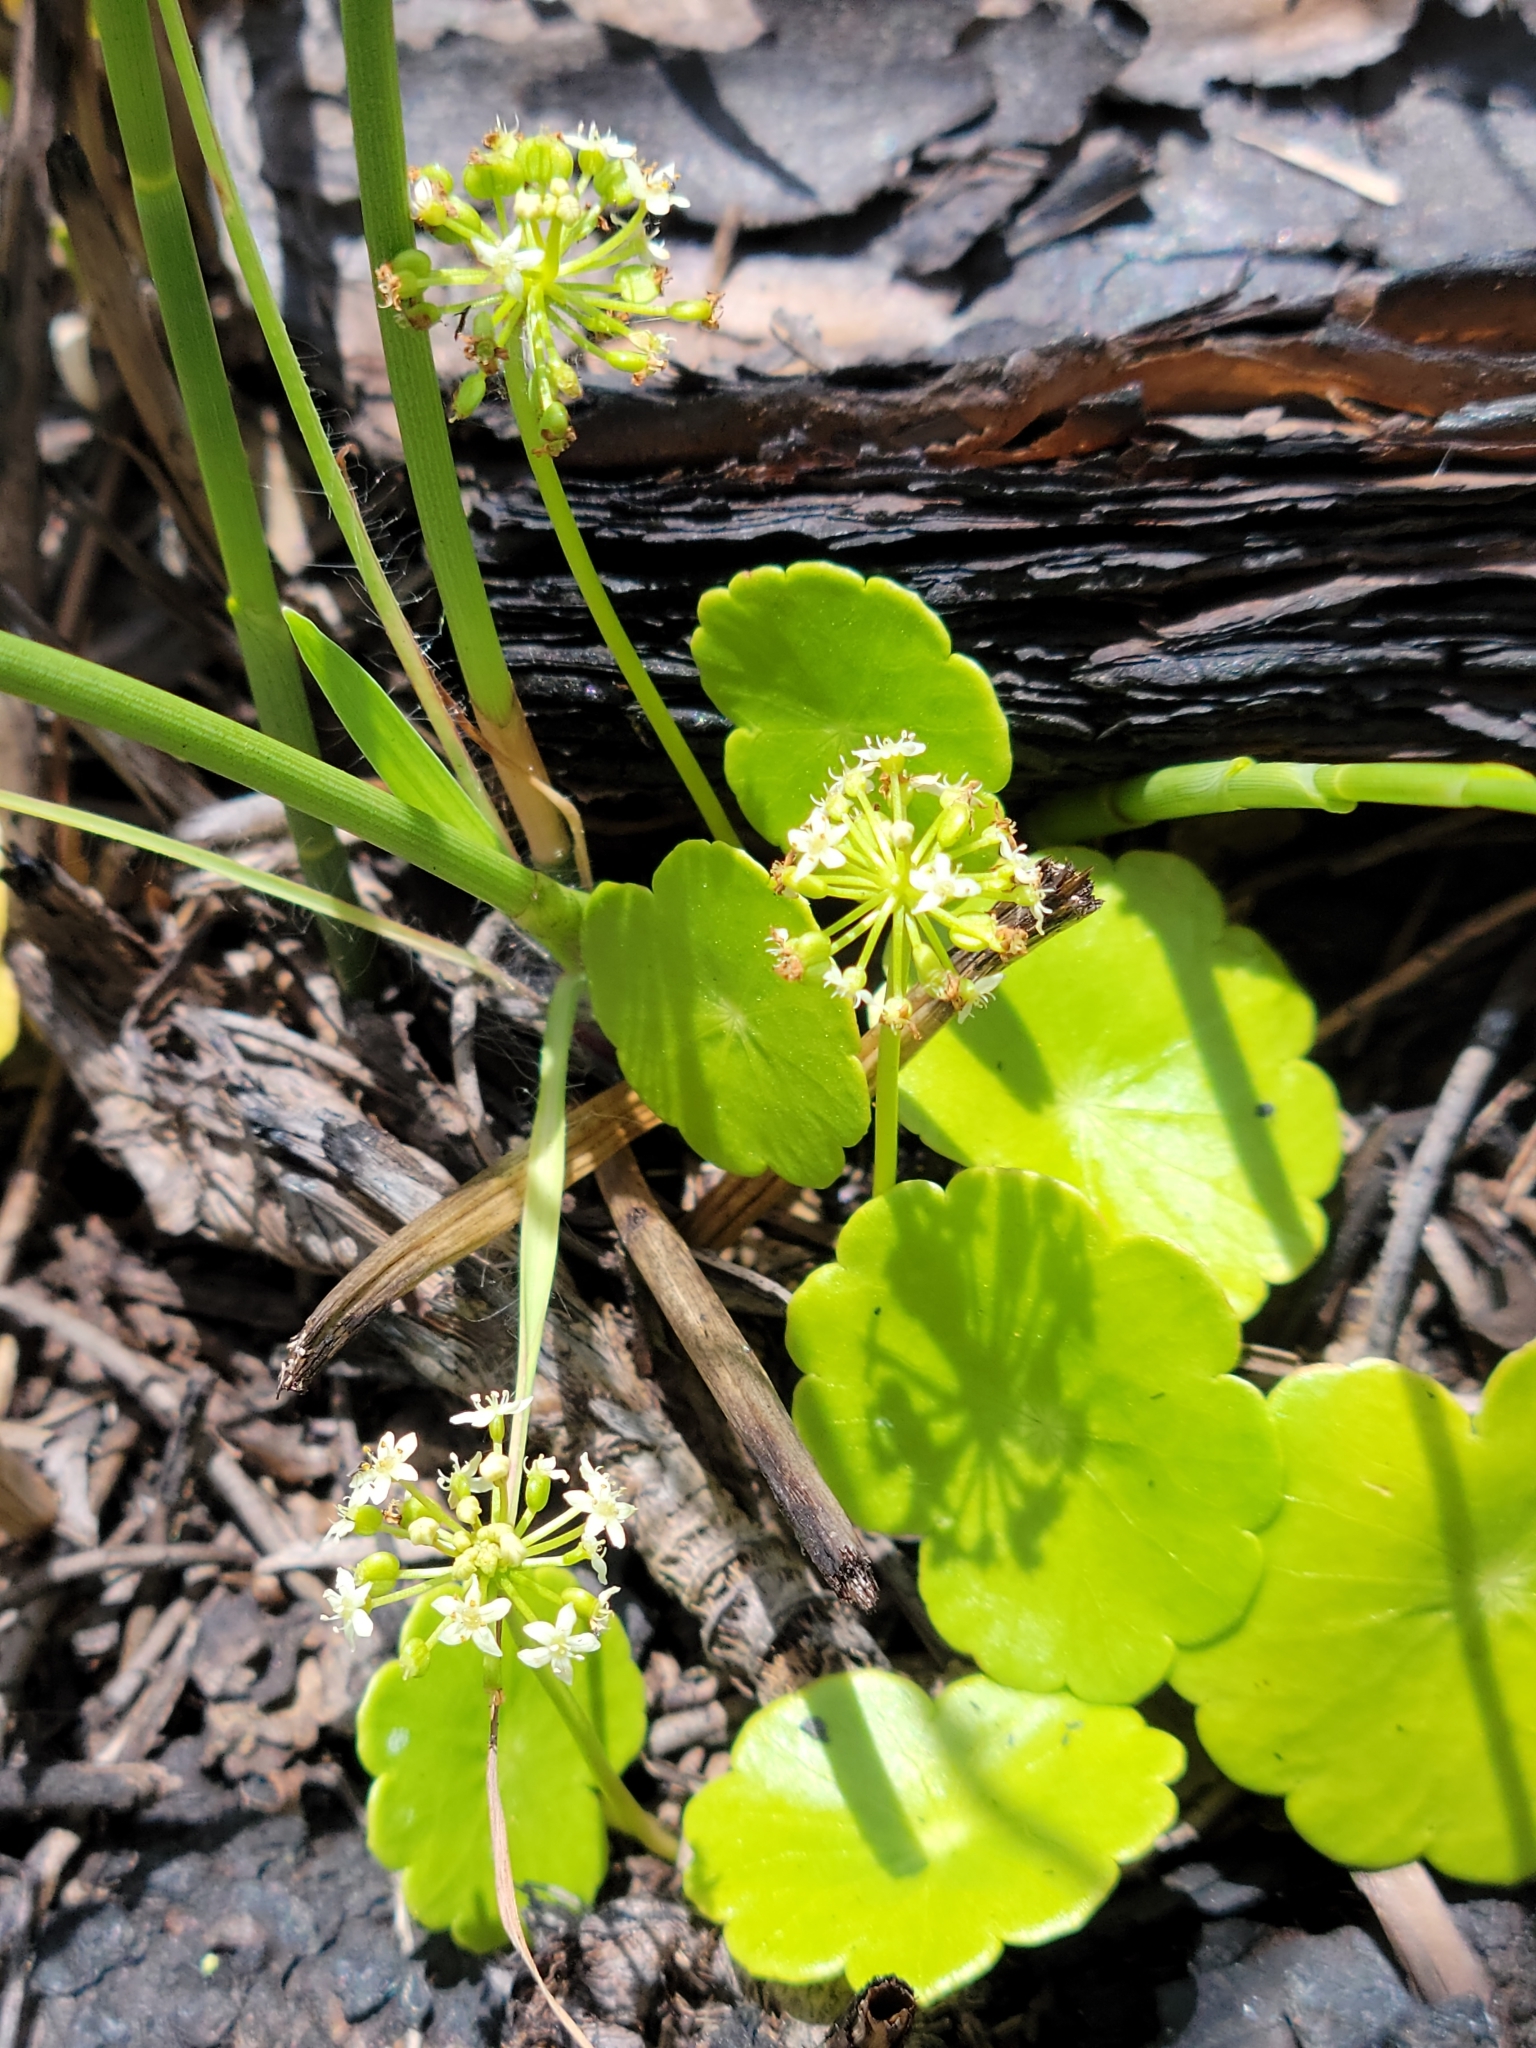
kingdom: Plantae
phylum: Tracheophyta
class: Magnoliopsida
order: Apiales
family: Araliaceae
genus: Hydrocotyle
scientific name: Hydrocotyle umbellata
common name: Water pennywort
